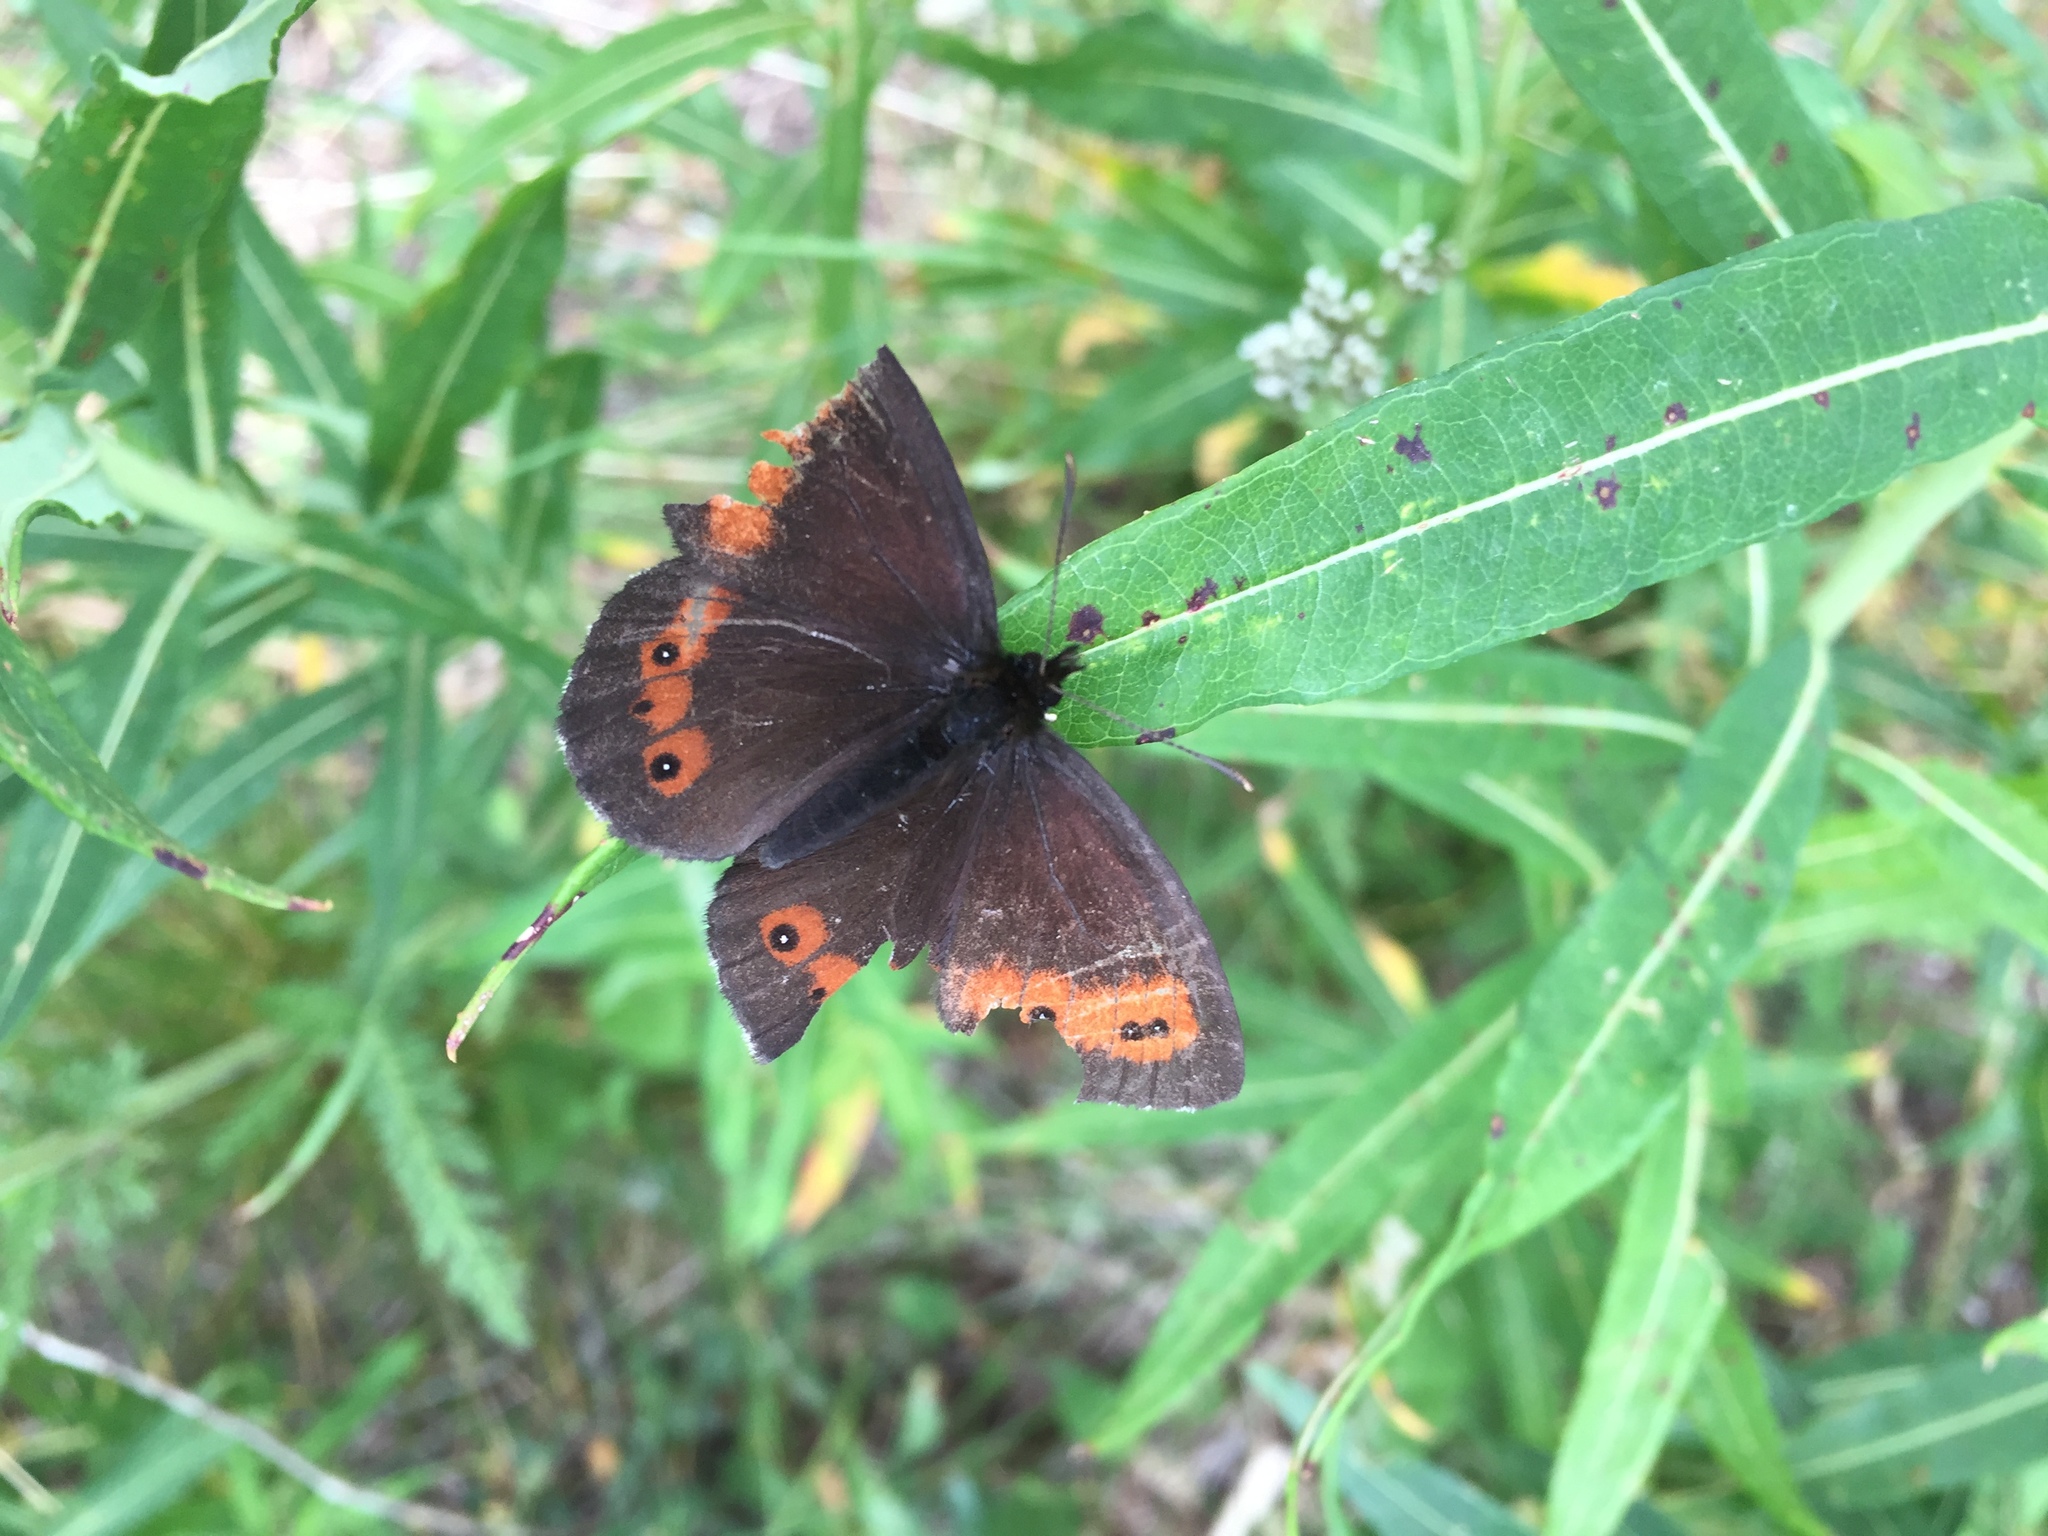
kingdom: Animalia
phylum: Arthropoda
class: Insecta
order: Lepidoptera
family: Nymphalidae
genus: Erebia
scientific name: Erebia euryale
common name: Large ringlet
